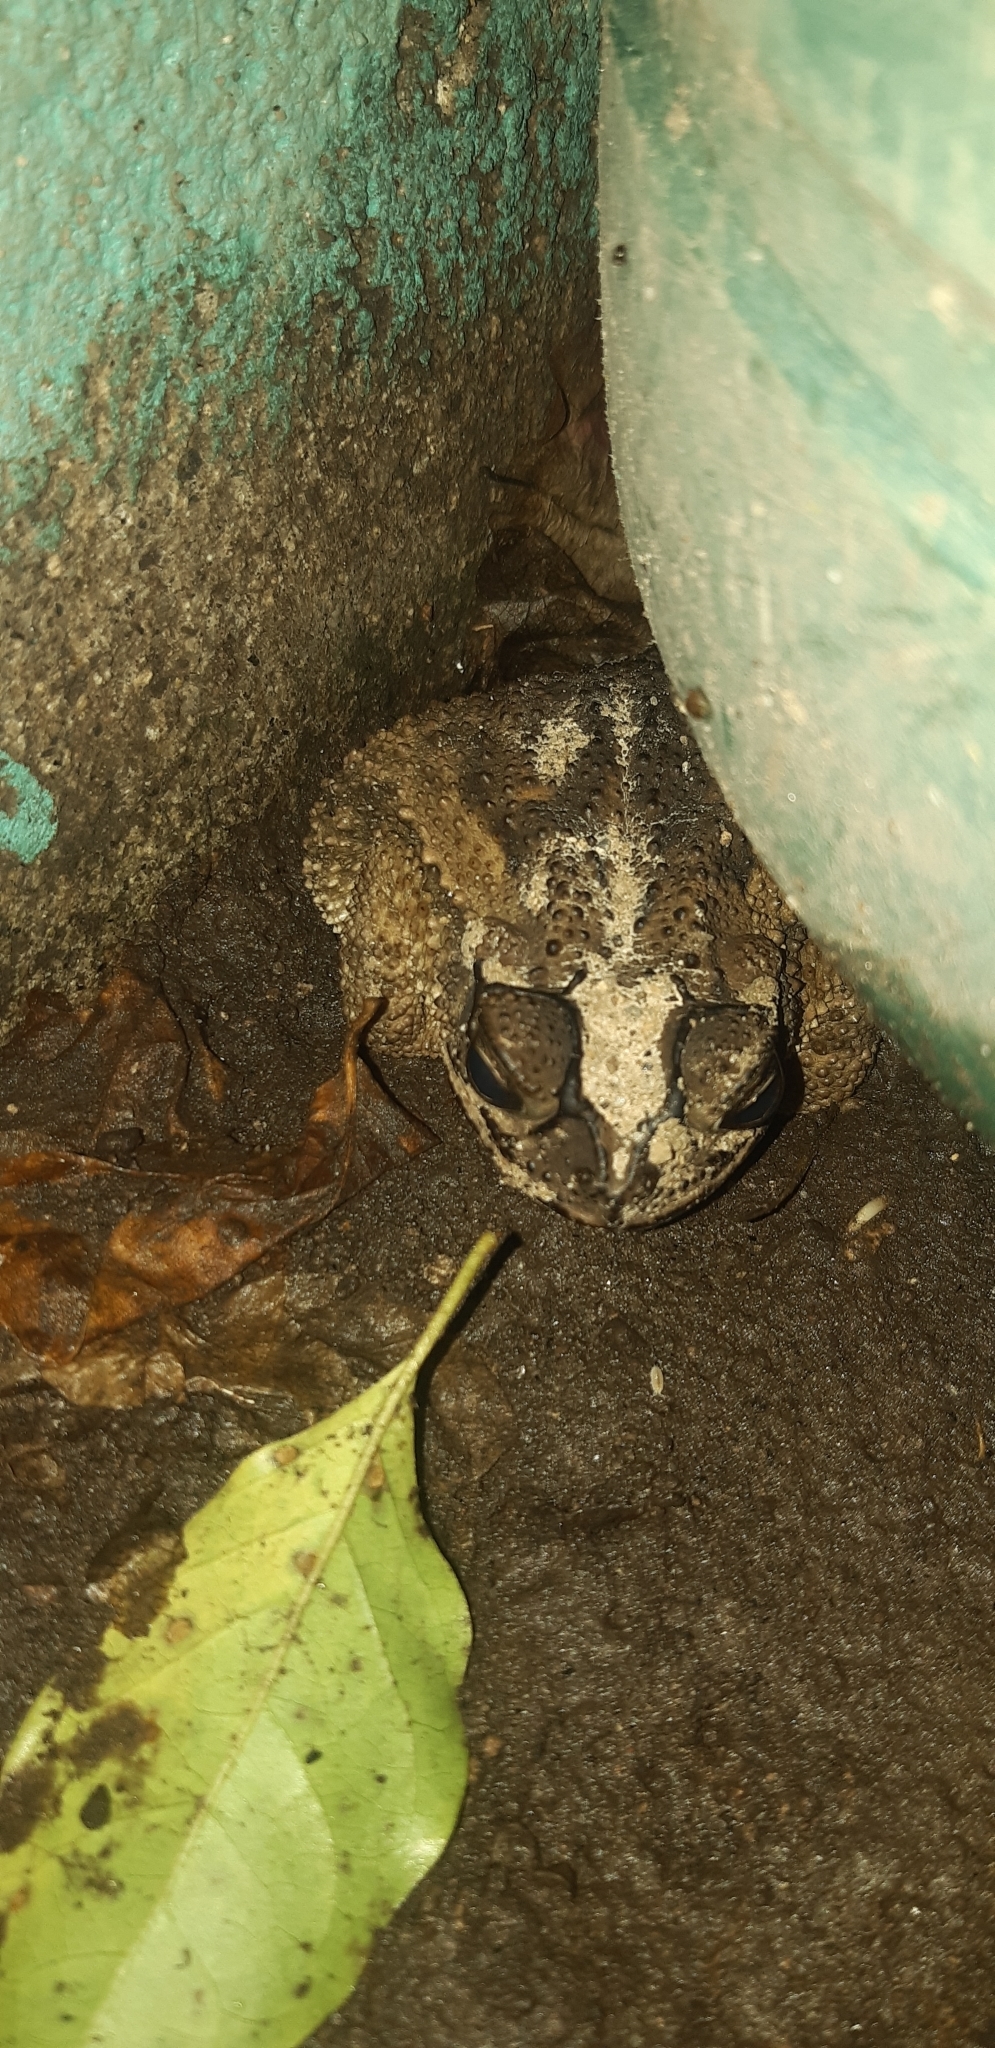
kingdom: Animalia
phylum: Chordata
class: Amphibia
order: Anura
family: Bufonidae
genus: Incilius
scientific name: Incilius luetkenii
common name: Yellow toad
